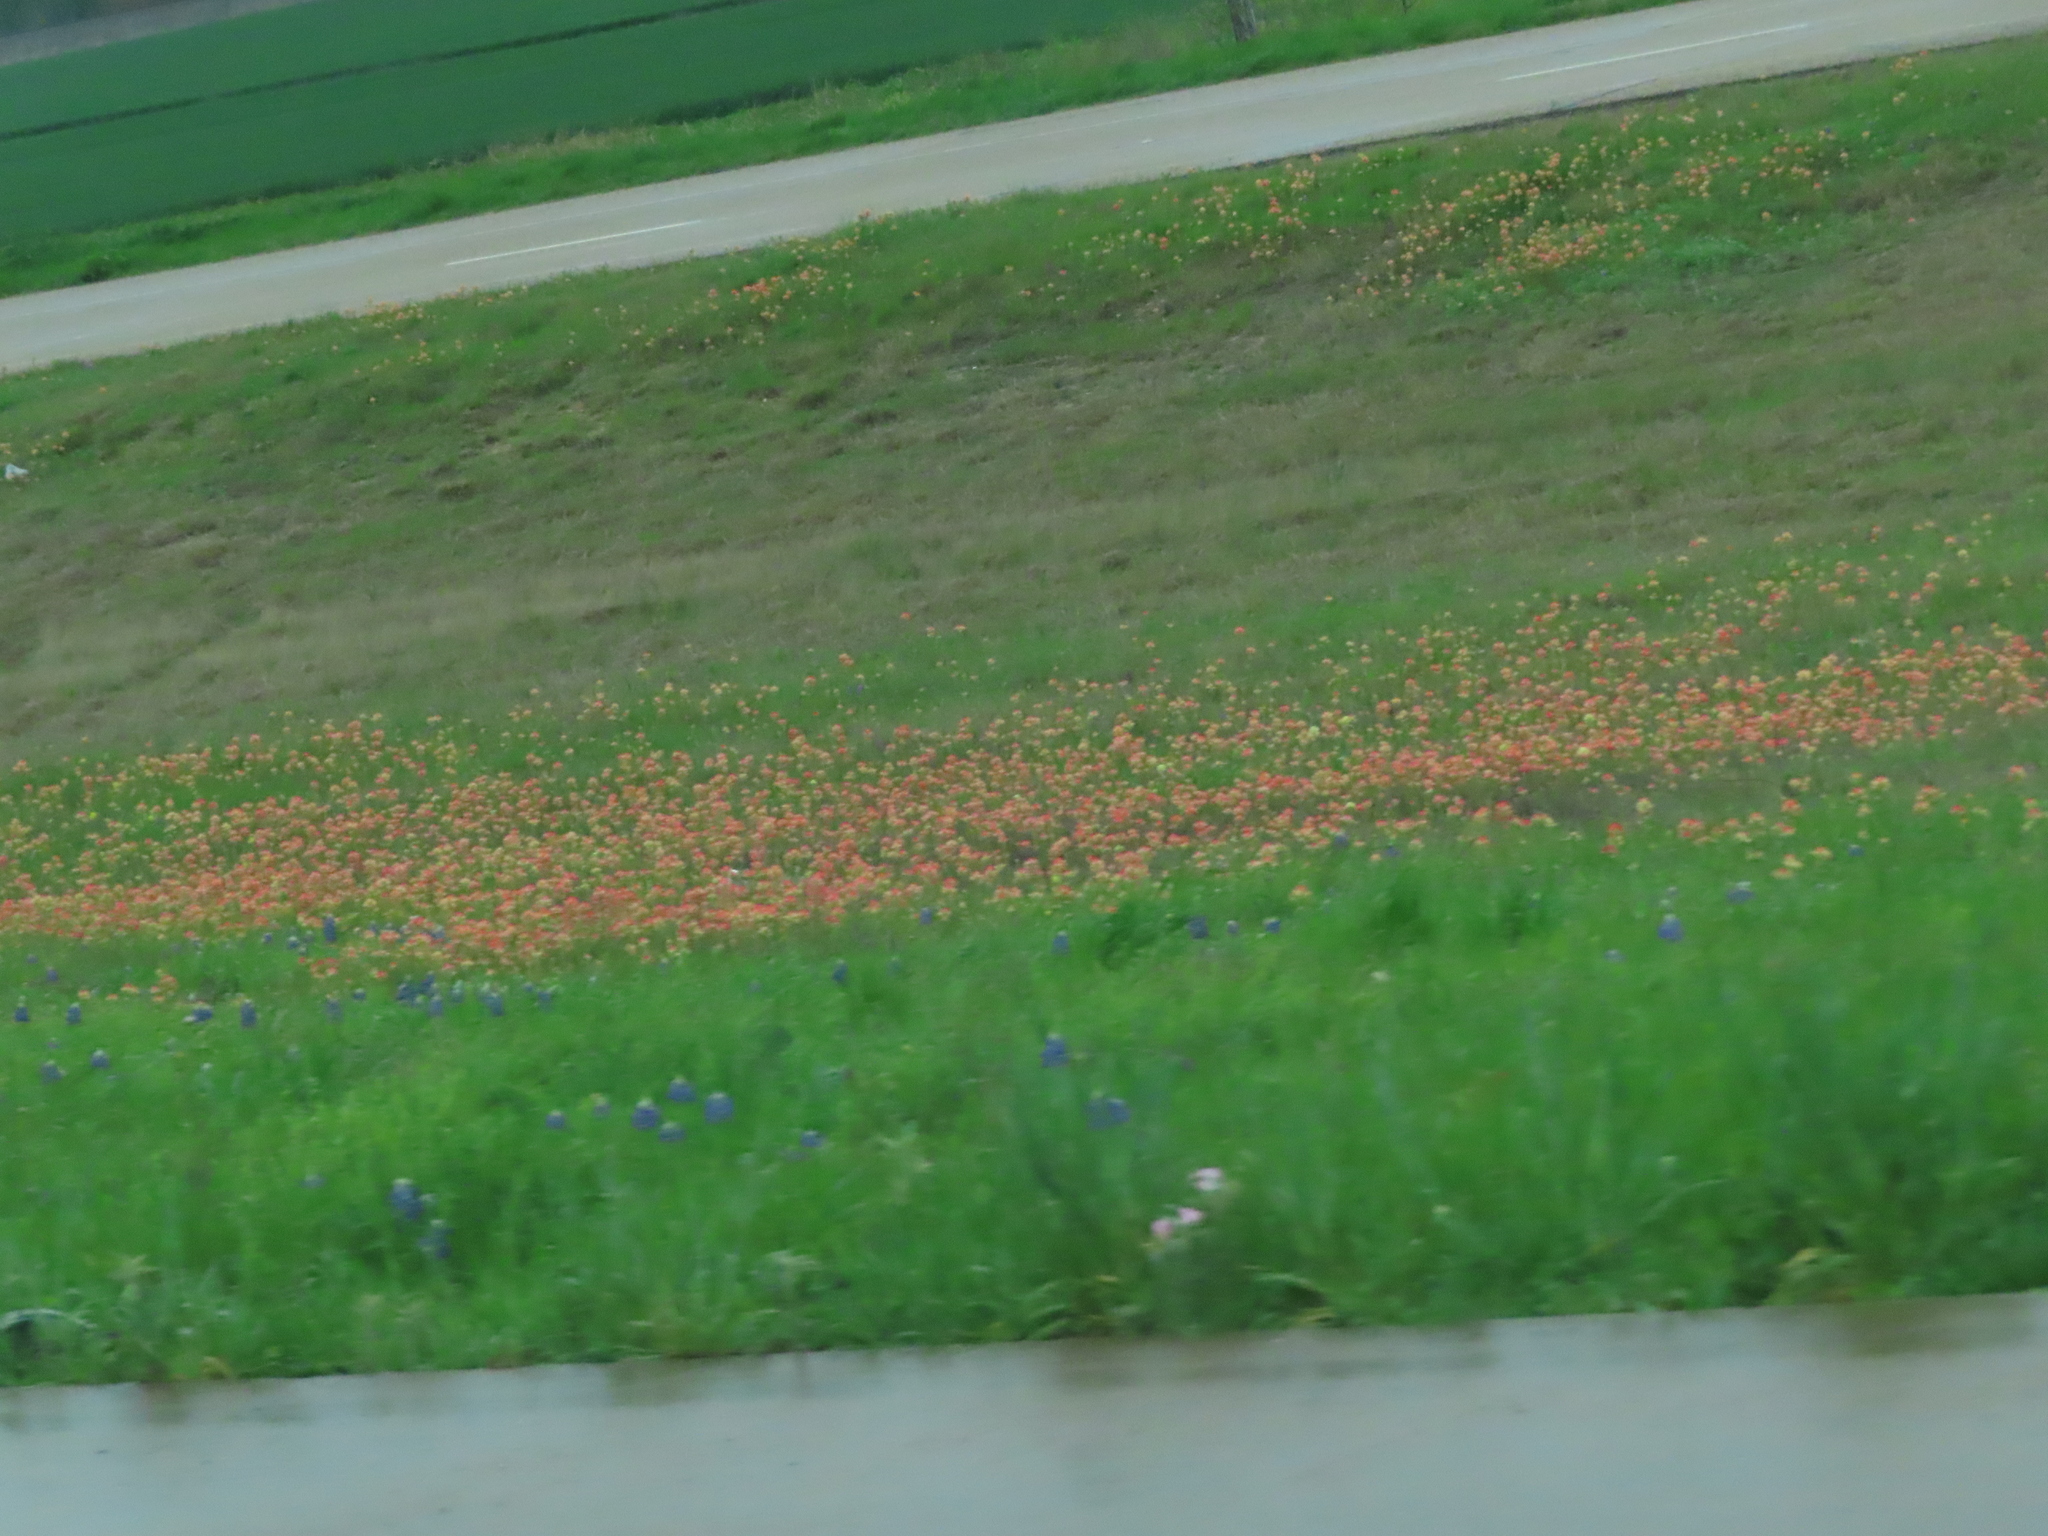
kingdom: Plantae
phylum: Tracheophyta
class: Magnoliopsida
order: Lamiales
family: Orobanchaceae
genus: Castilleja
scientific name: Castilleja indivisa
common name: Texas paintbrush
